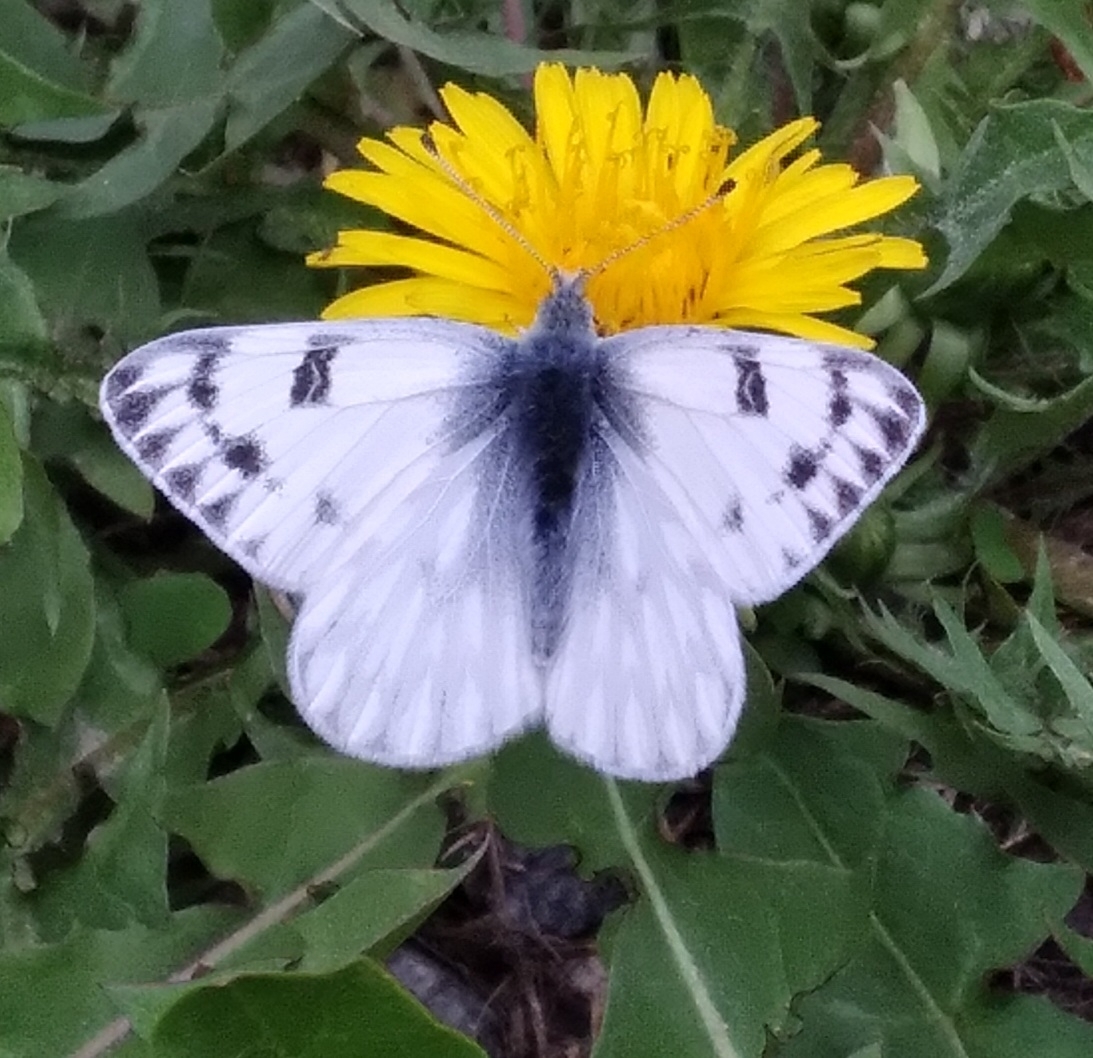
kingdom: Animalia
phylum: Arthropoda
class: Insecta
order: Lepidoptera
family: Pieridae
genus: Pontia
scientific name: Pontia occidentalis
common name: Western white
